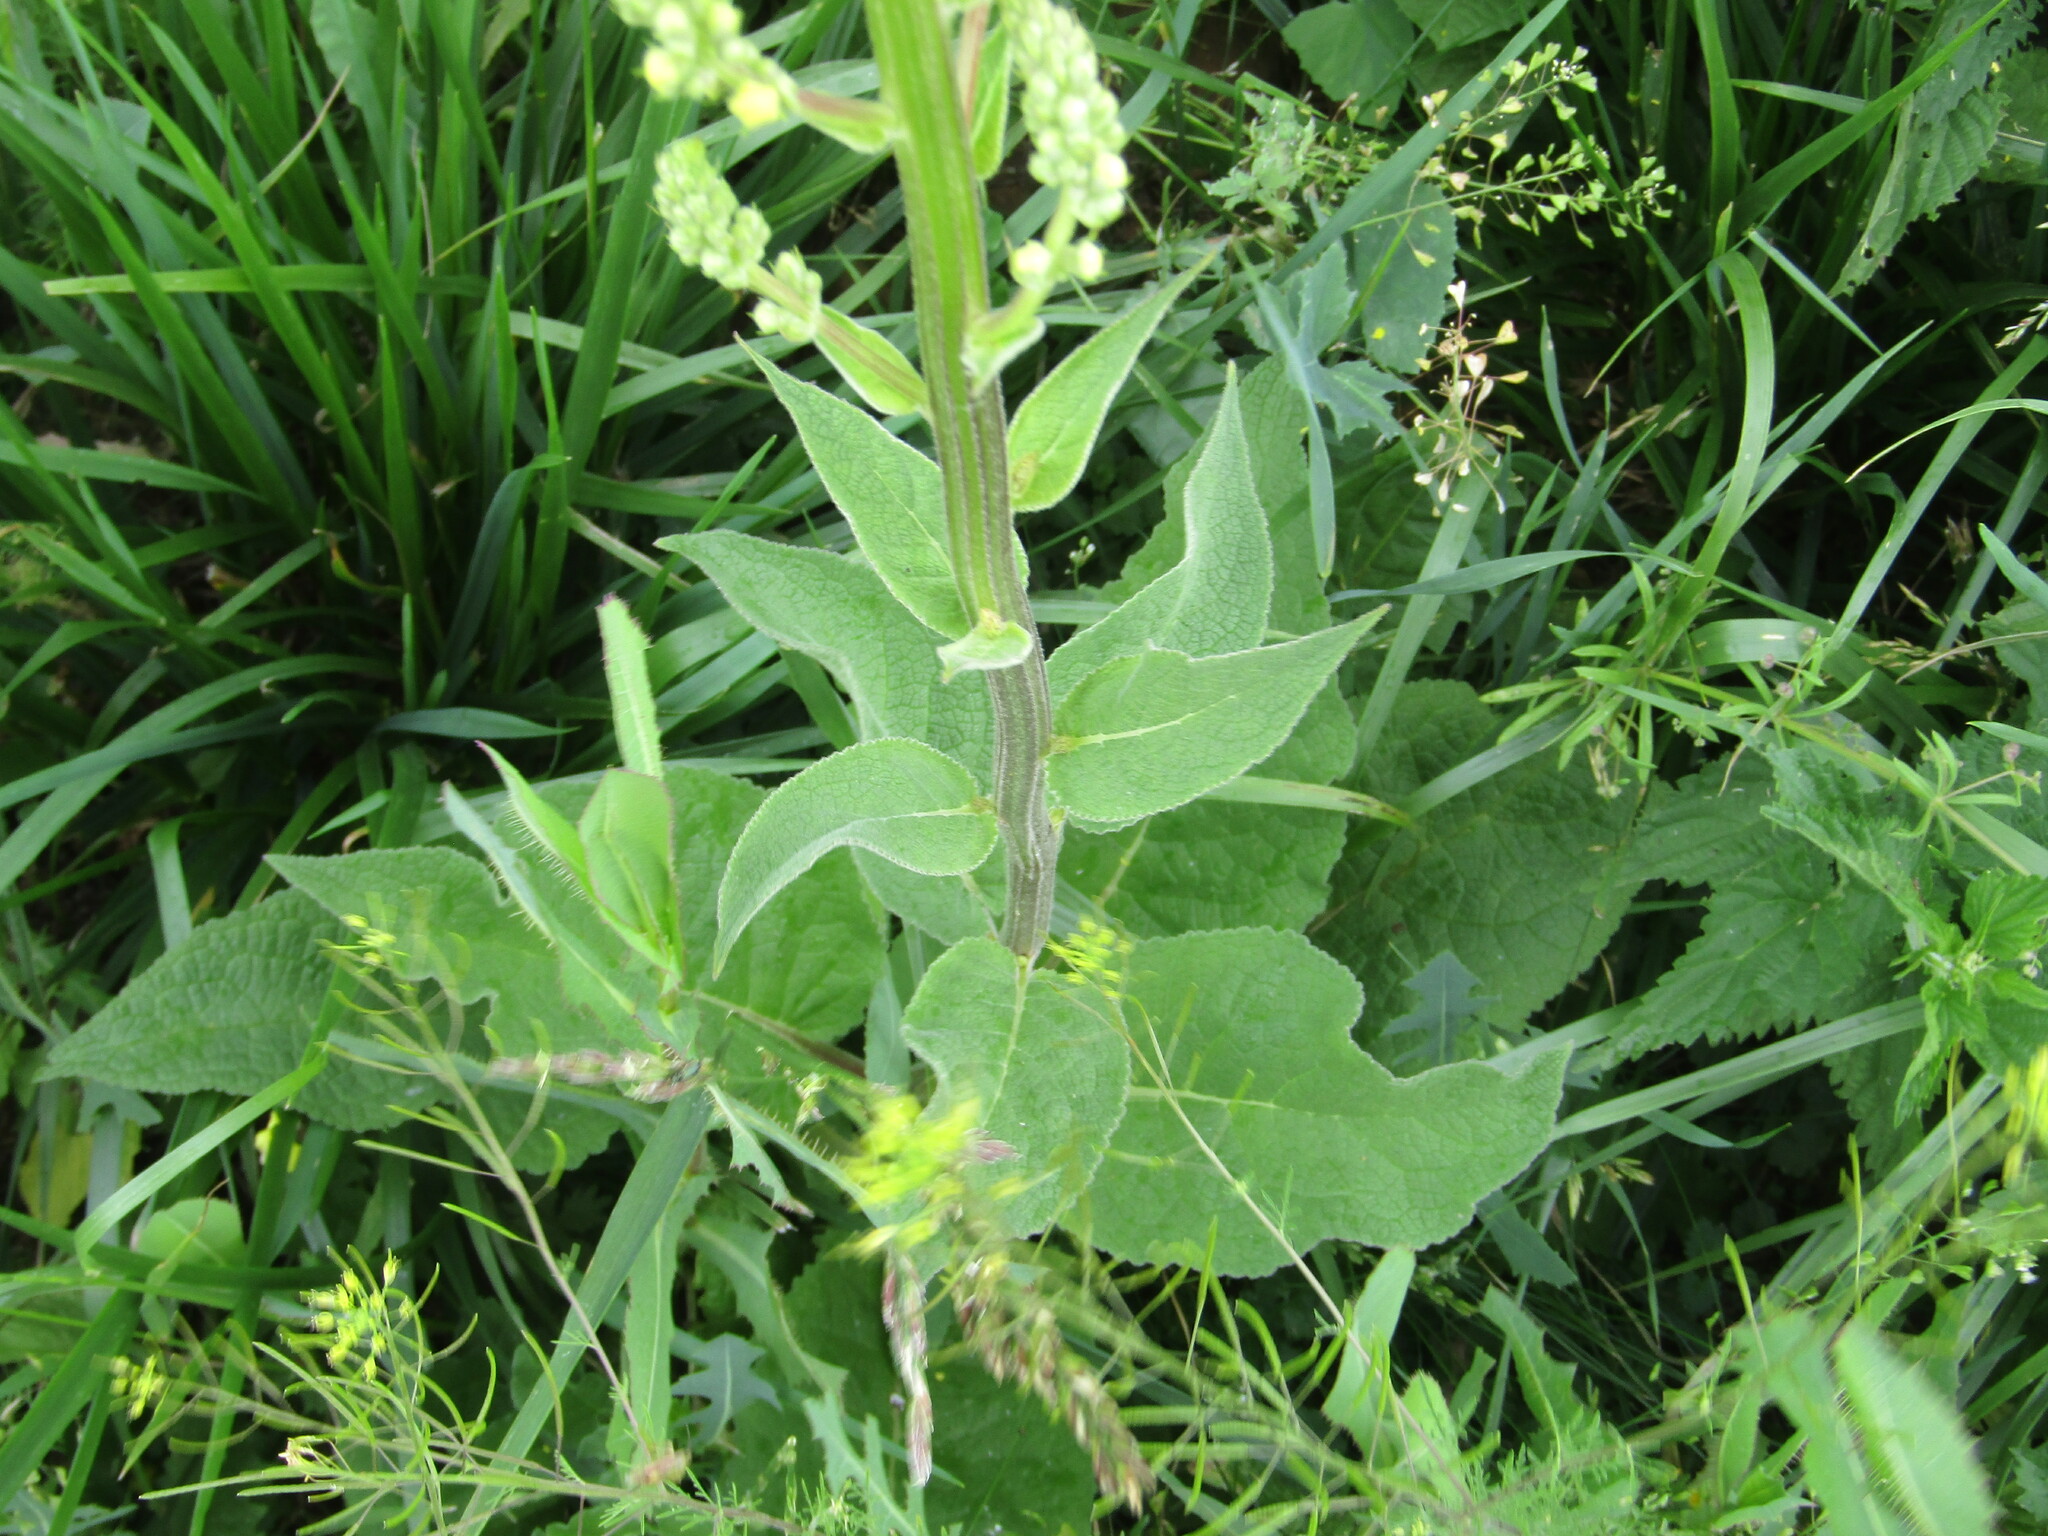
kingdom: Plantae
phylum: Tracheophyta
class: Magnoliopsida
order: Lamiales
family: Scrophulariaceae
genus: Verbascum
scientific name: Verbascum nigrum
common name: Dark mullein
